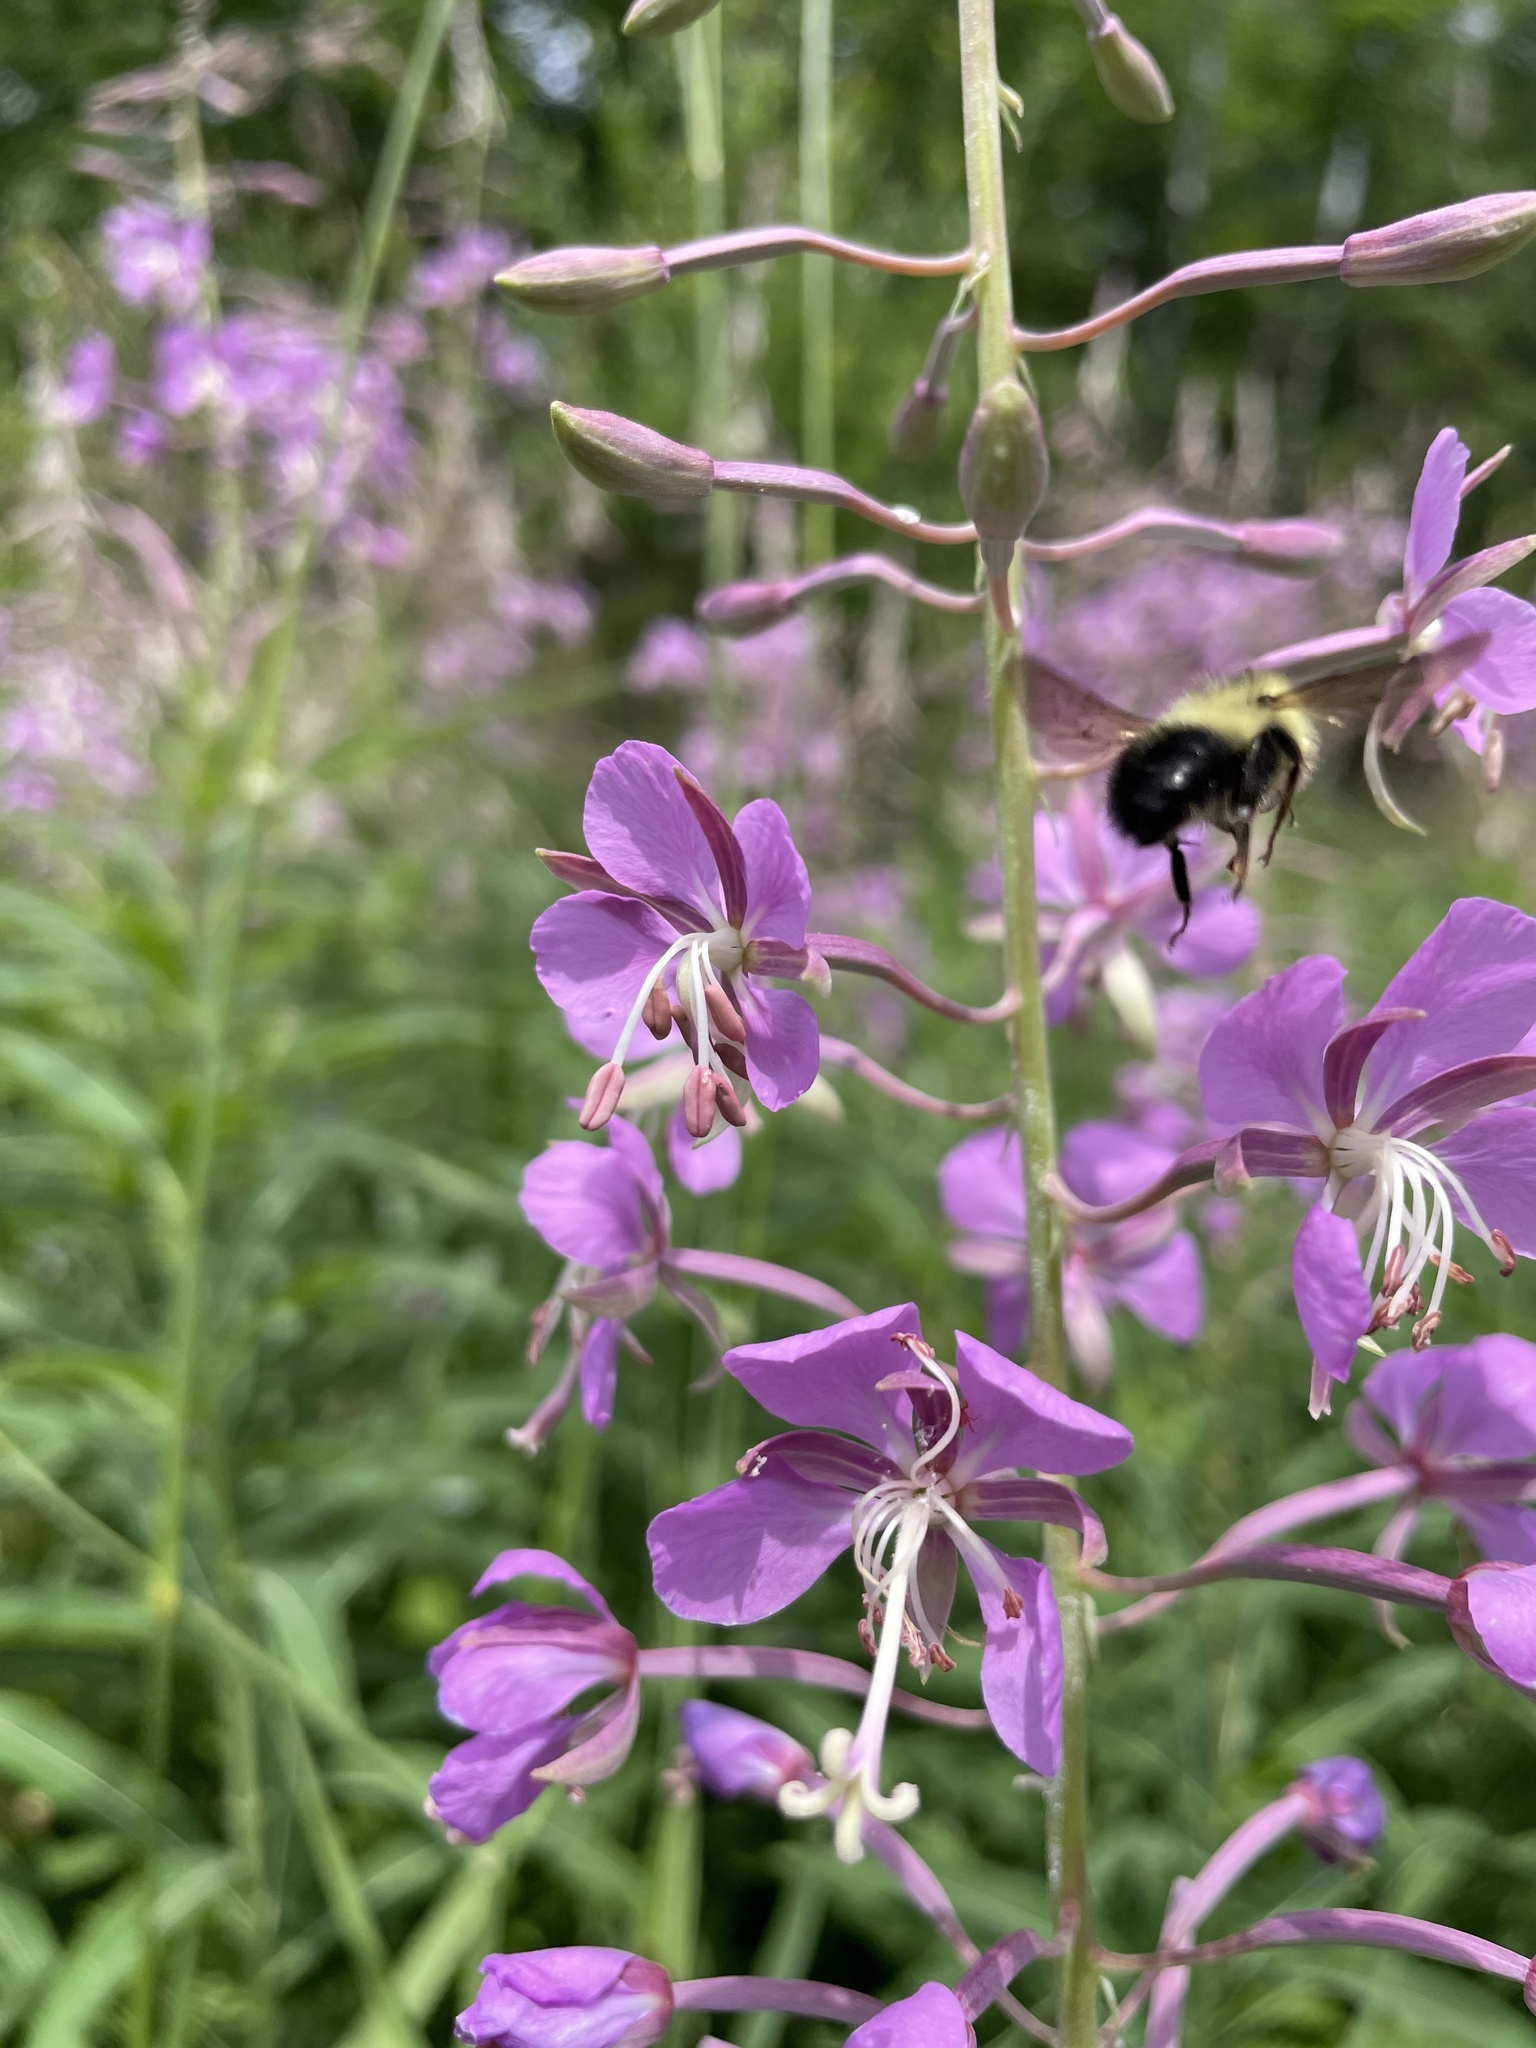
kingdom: Animalia
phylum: Arthropoda
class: Insecta
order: Hymenoptera
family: Apidae
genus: Pyrobombus
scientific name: Pyrobombus
